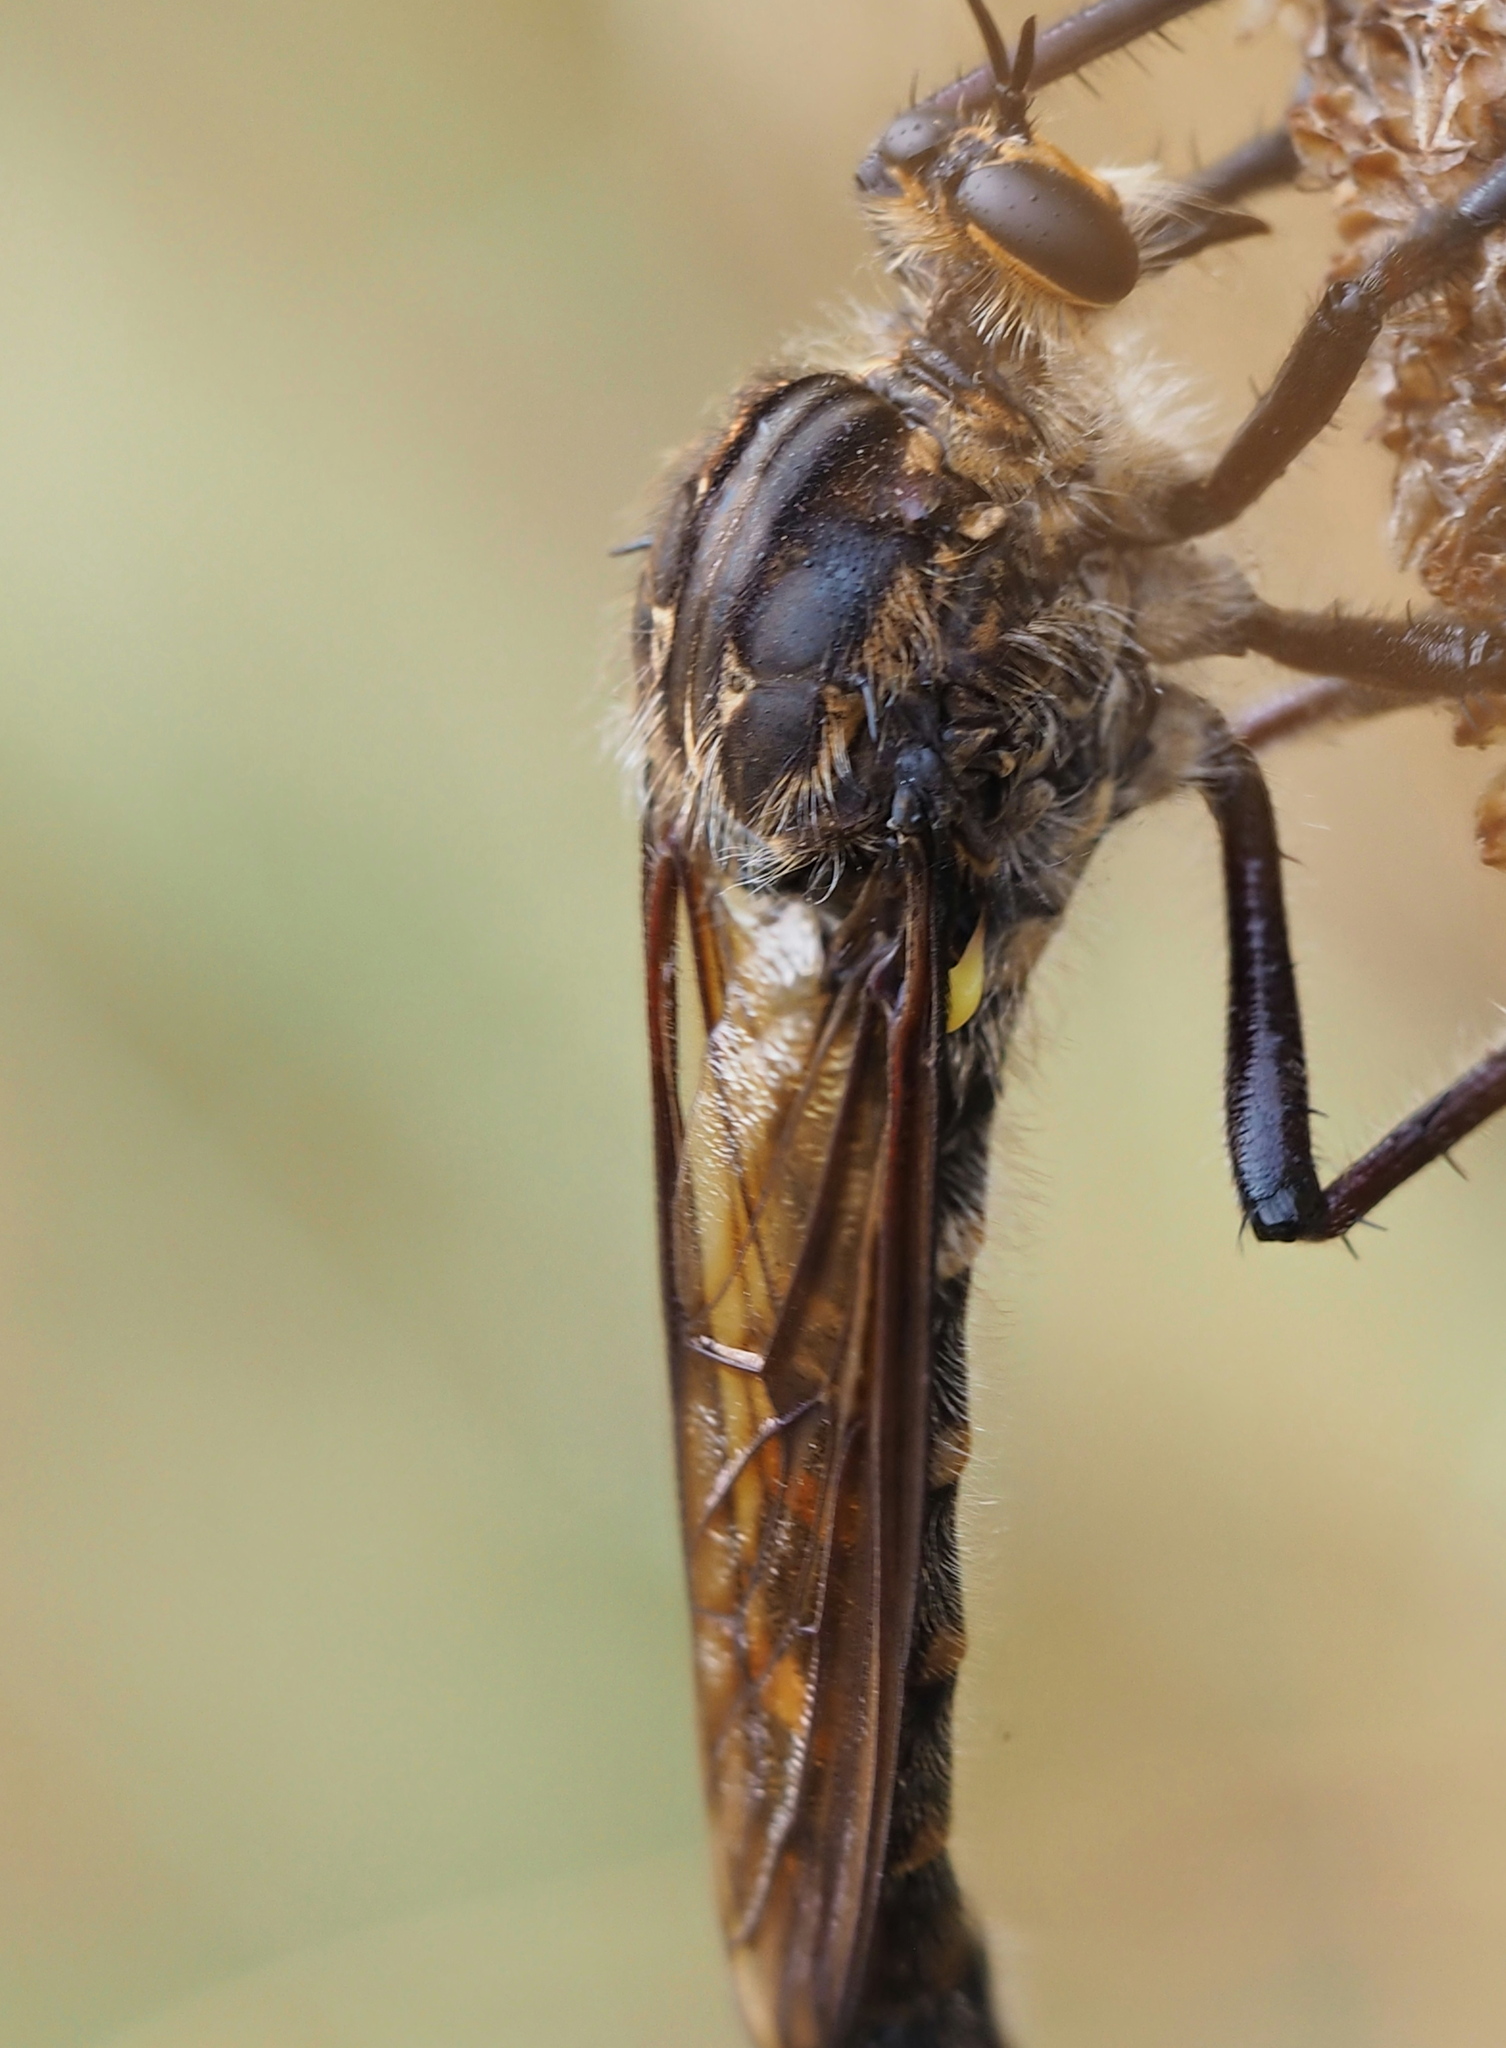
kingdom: Animalia
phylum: Arthropoda
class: Insecta
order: Diptera
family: Asilidae
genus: Chrysopogon
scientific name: Chrysopogon muelleri
